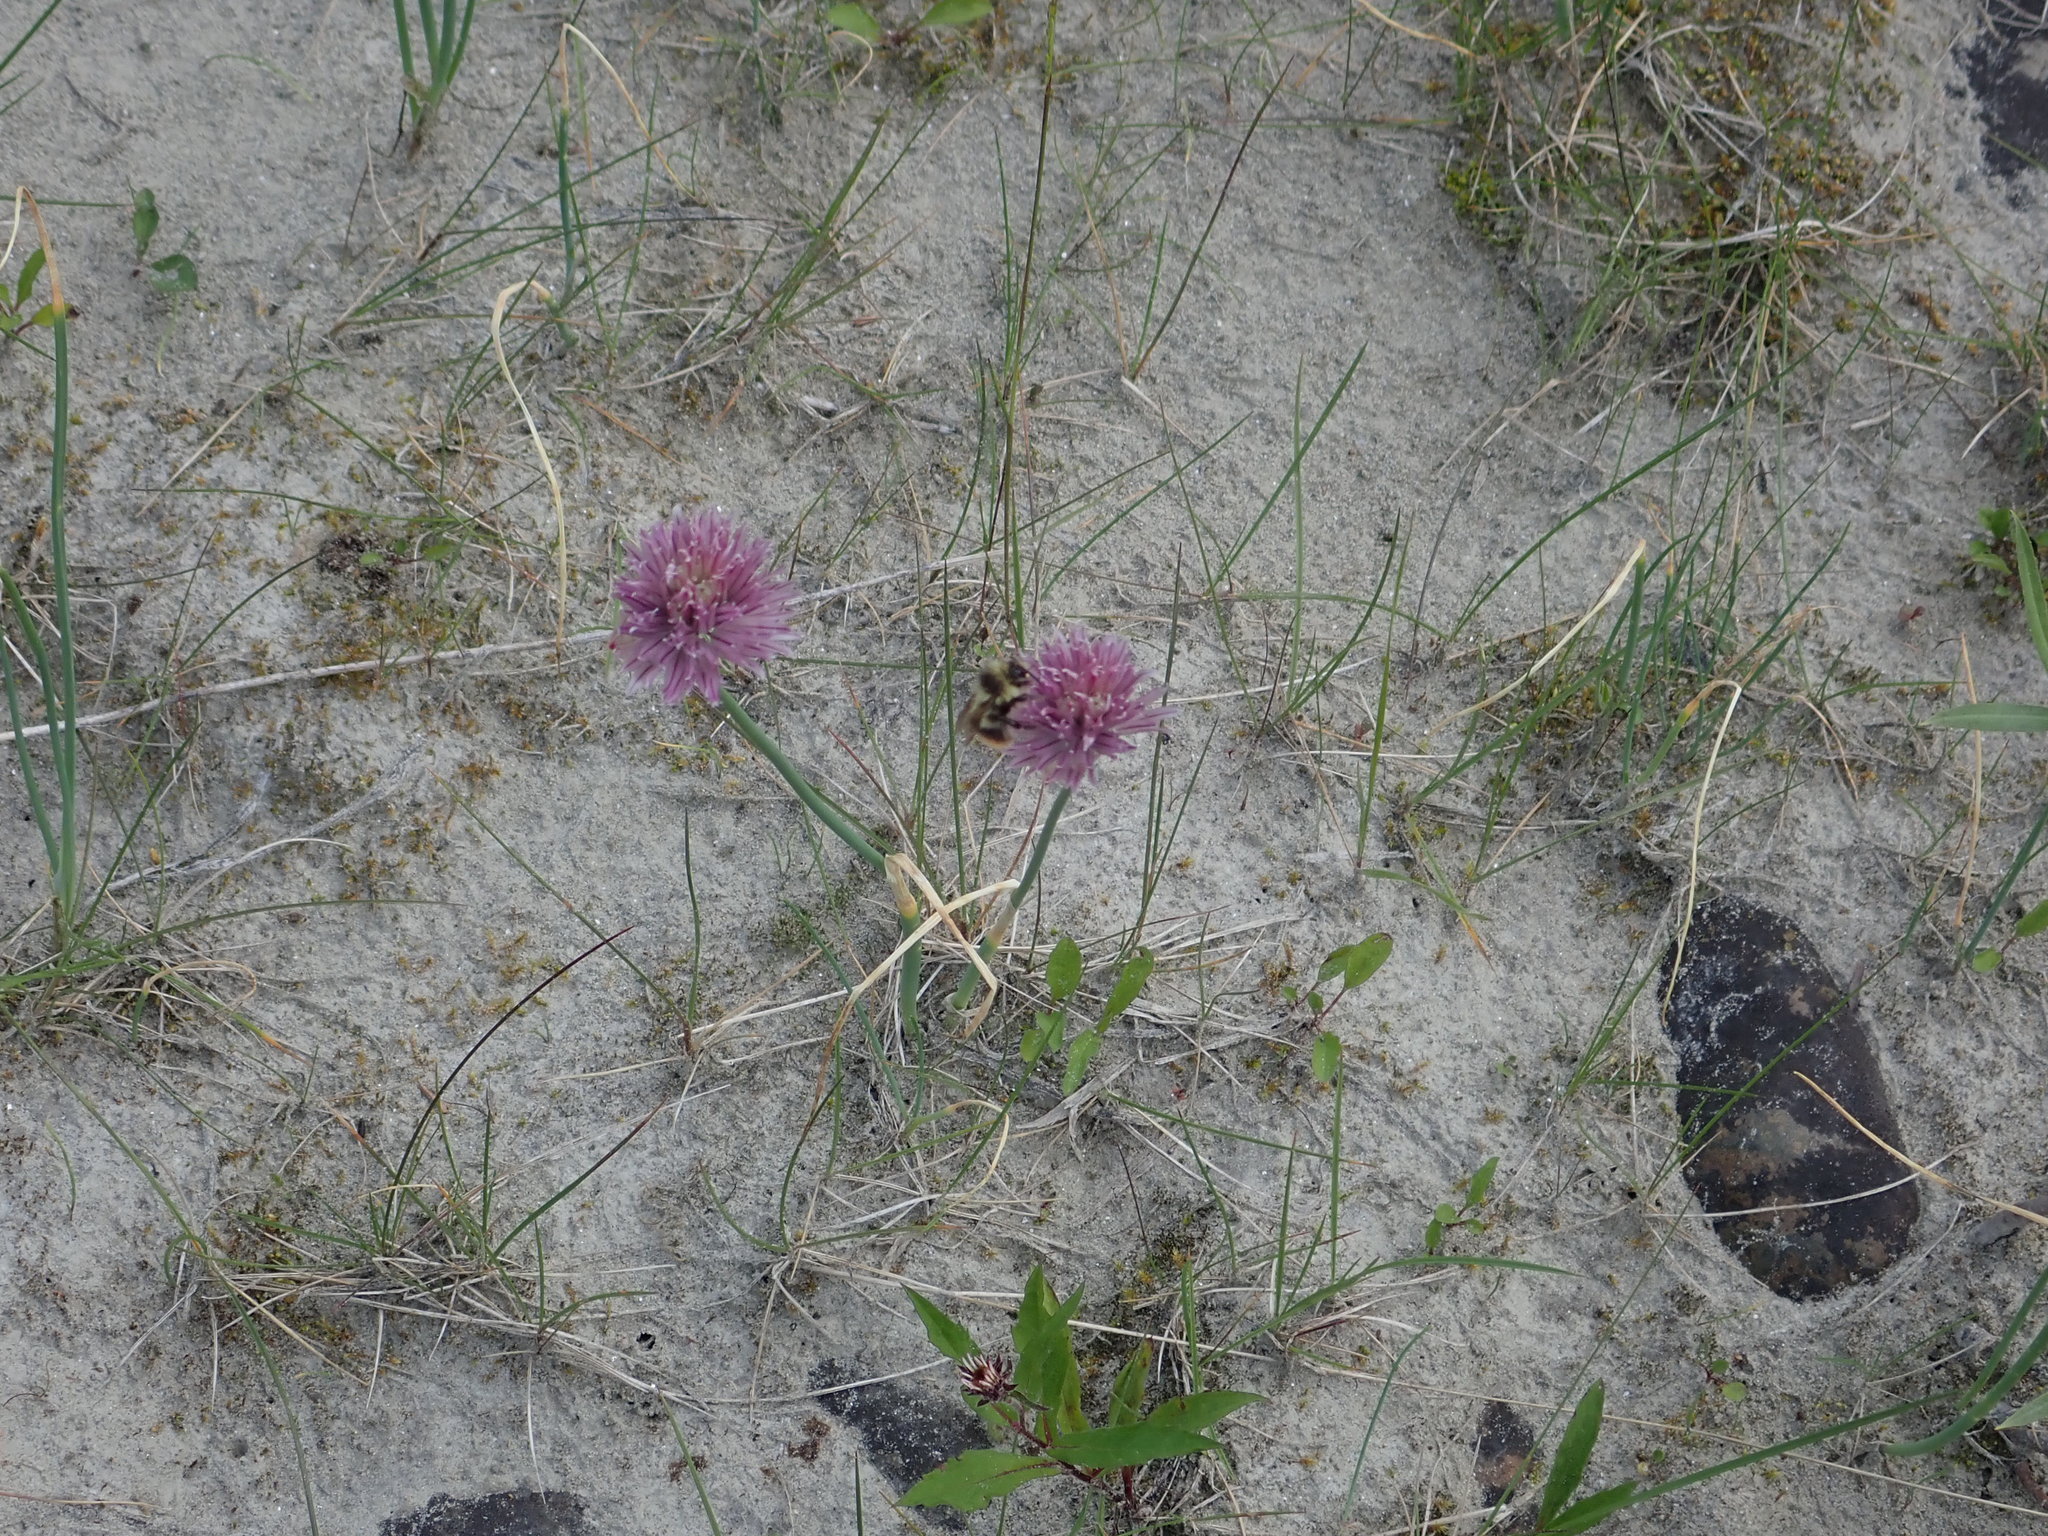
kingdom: Animalia
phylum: Arthropoda
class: Insecta
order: Hymenoptera
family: Apidae
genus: Bombus
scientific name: Bombus mixtus
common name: Fuzzy-horned bumble bee
